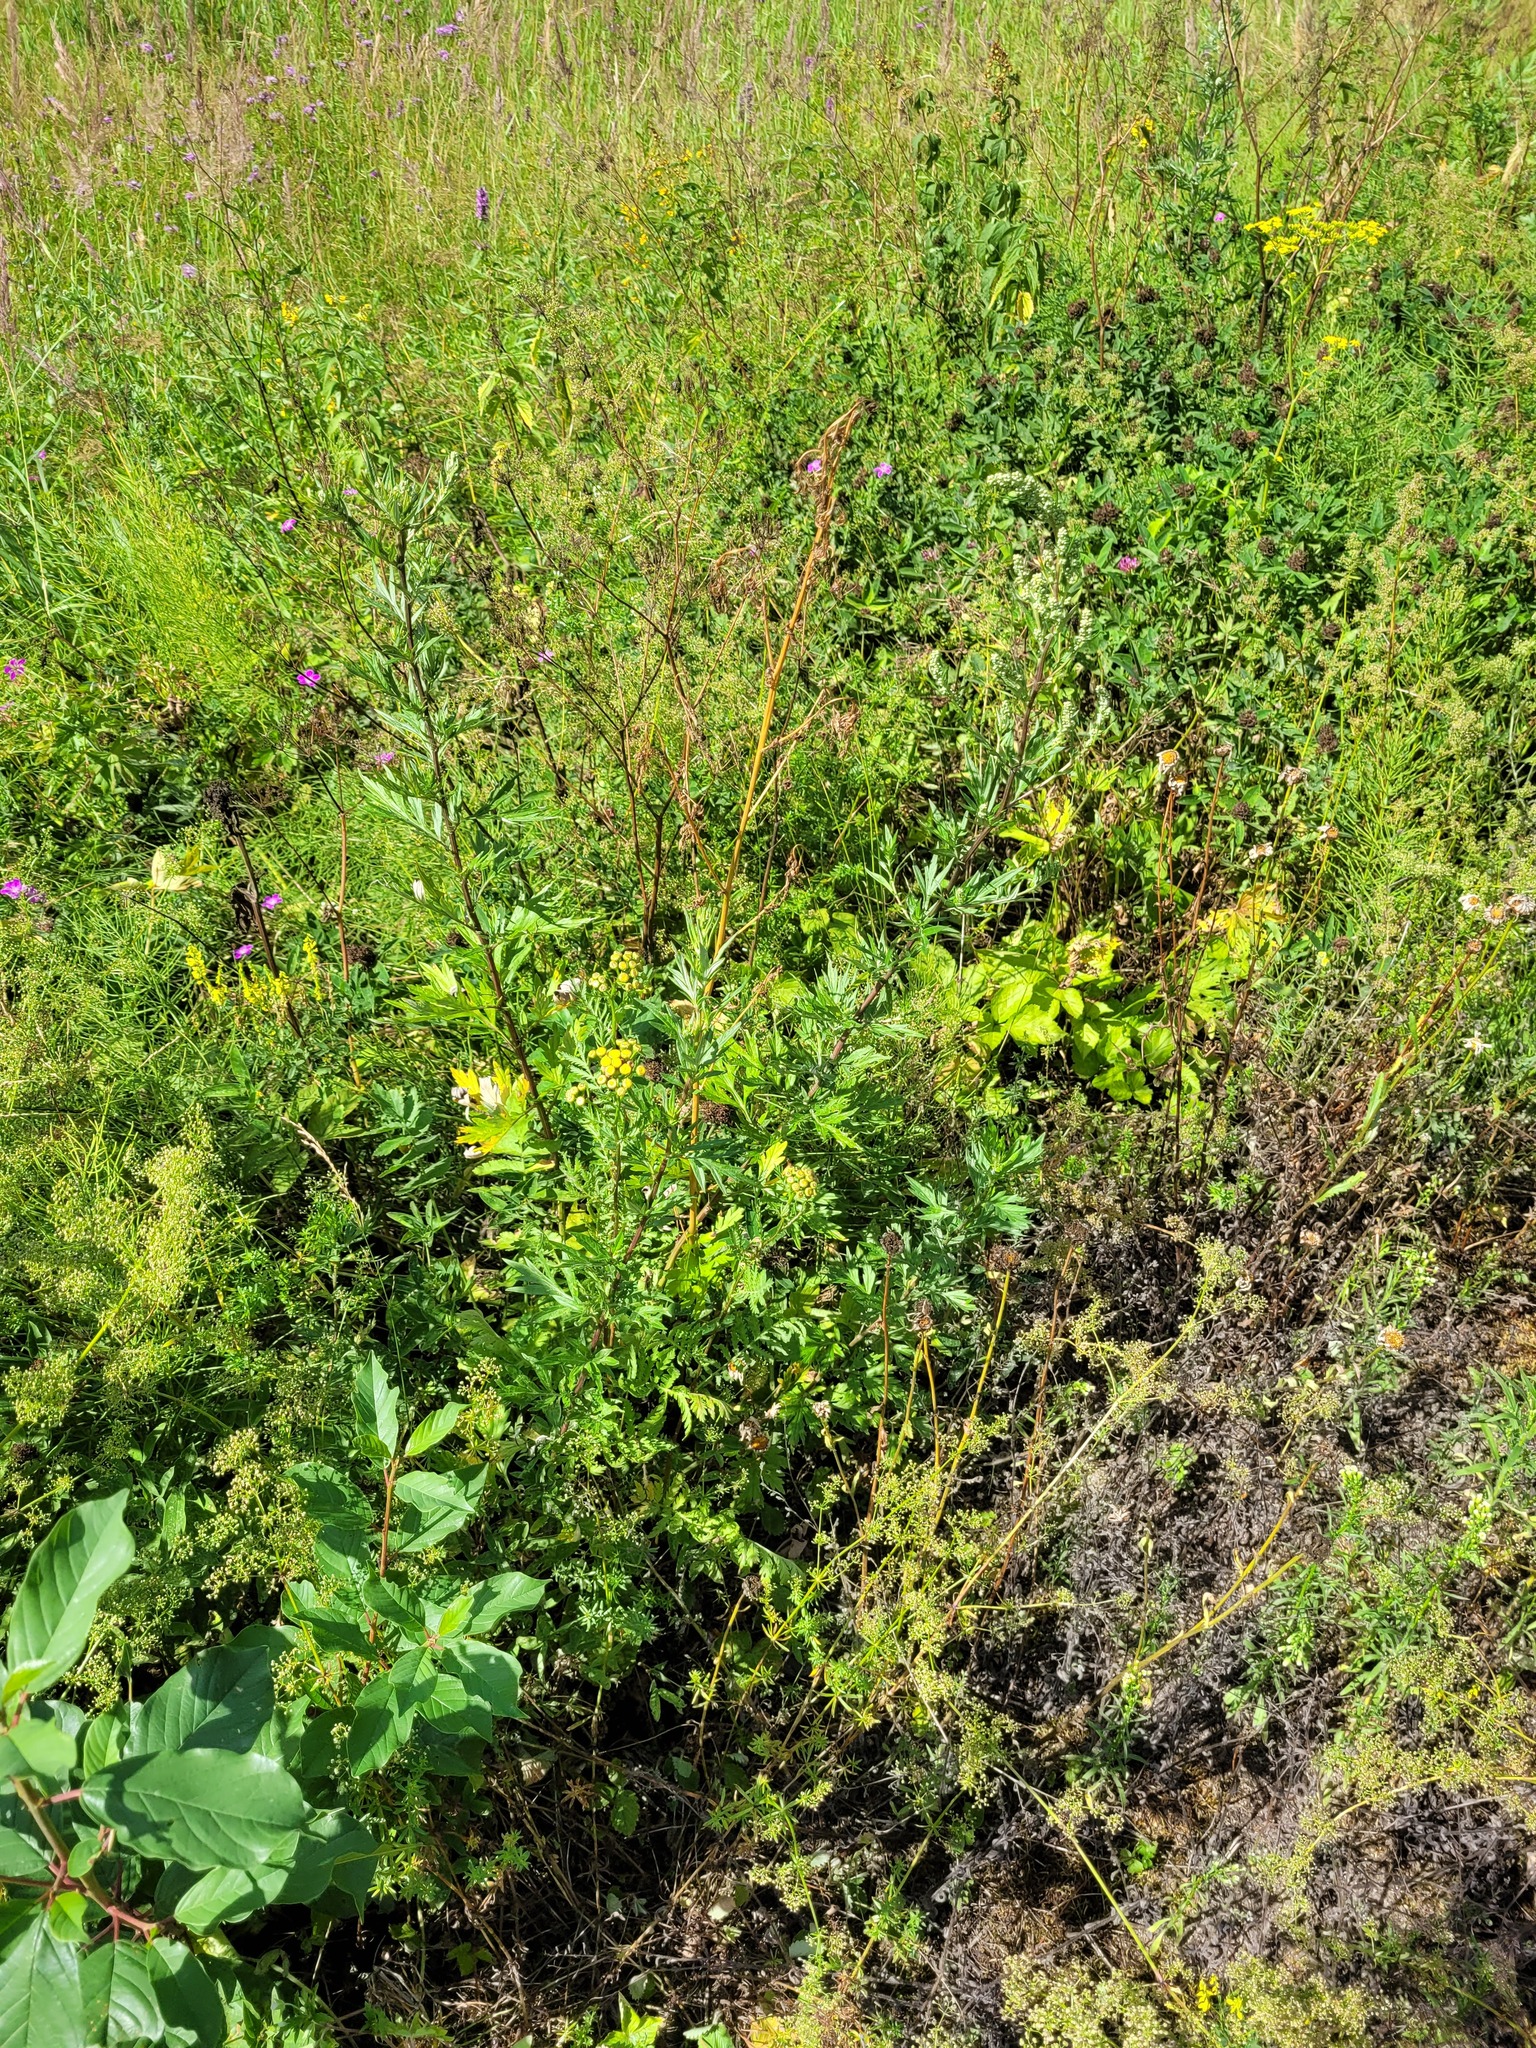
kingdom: Plantae
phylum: Tracheophyta
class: Magnoliopsida
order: Asterales
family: Asteraceae
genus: Artemisia
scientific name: Artemisia vulgaris
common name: Mugwort
